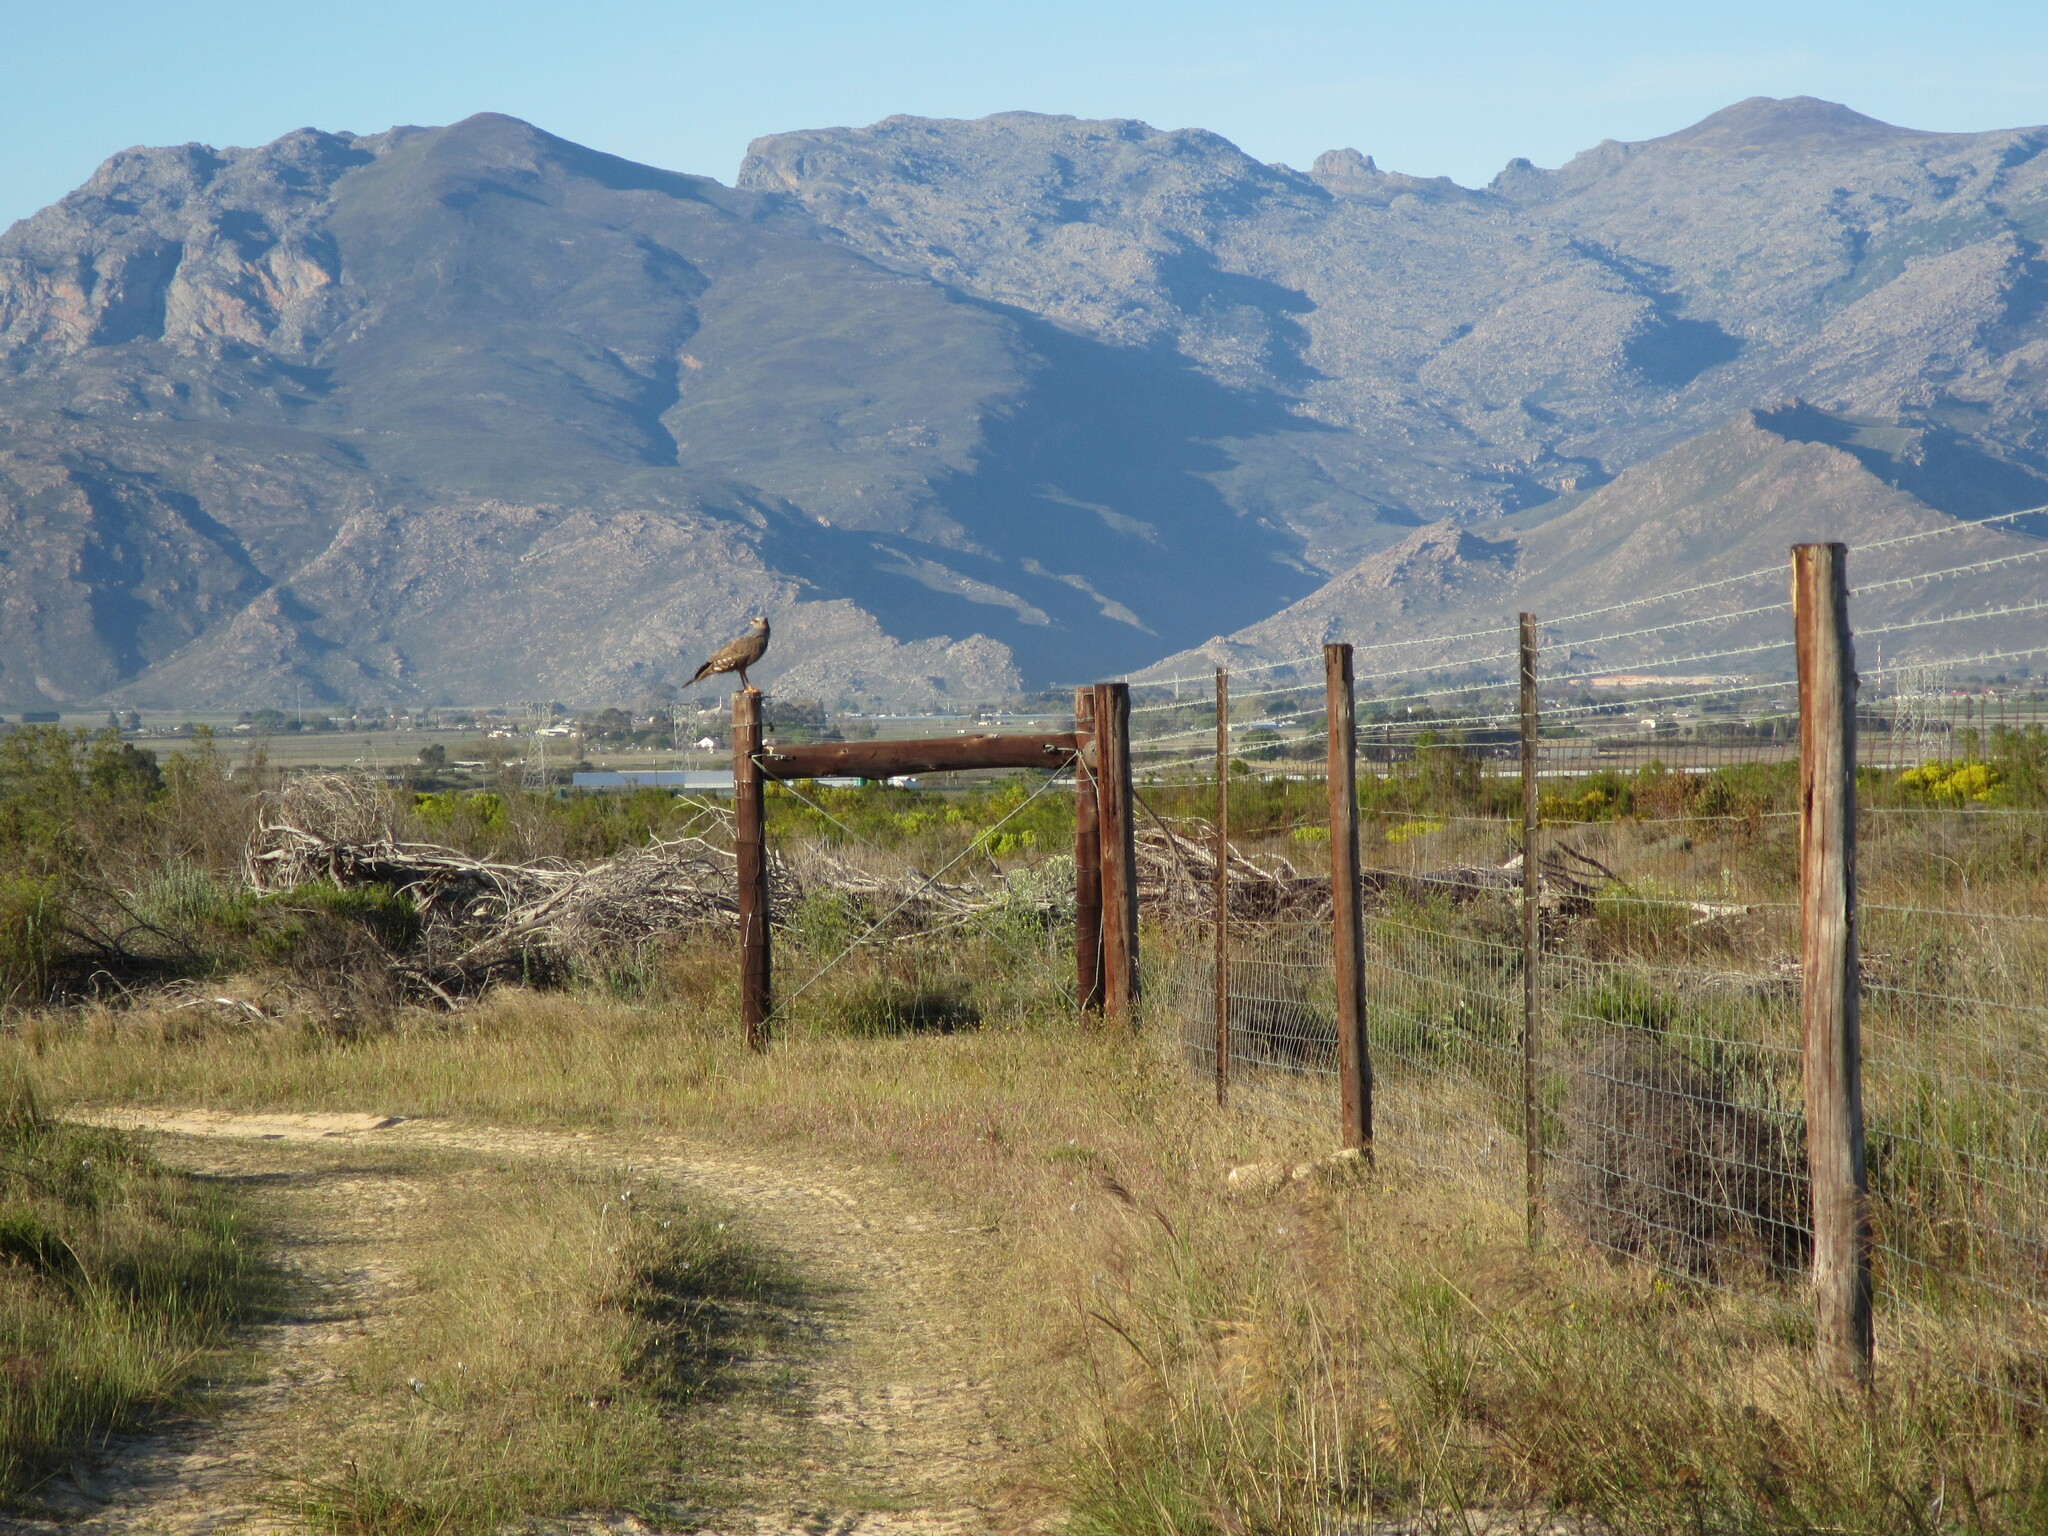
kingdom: Animalia
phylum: Chordata
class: Aves
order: Accipitriformes
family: Accipitridae
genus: Melierax
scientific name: Melierax canorus
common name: Pale chanting-goshawk
